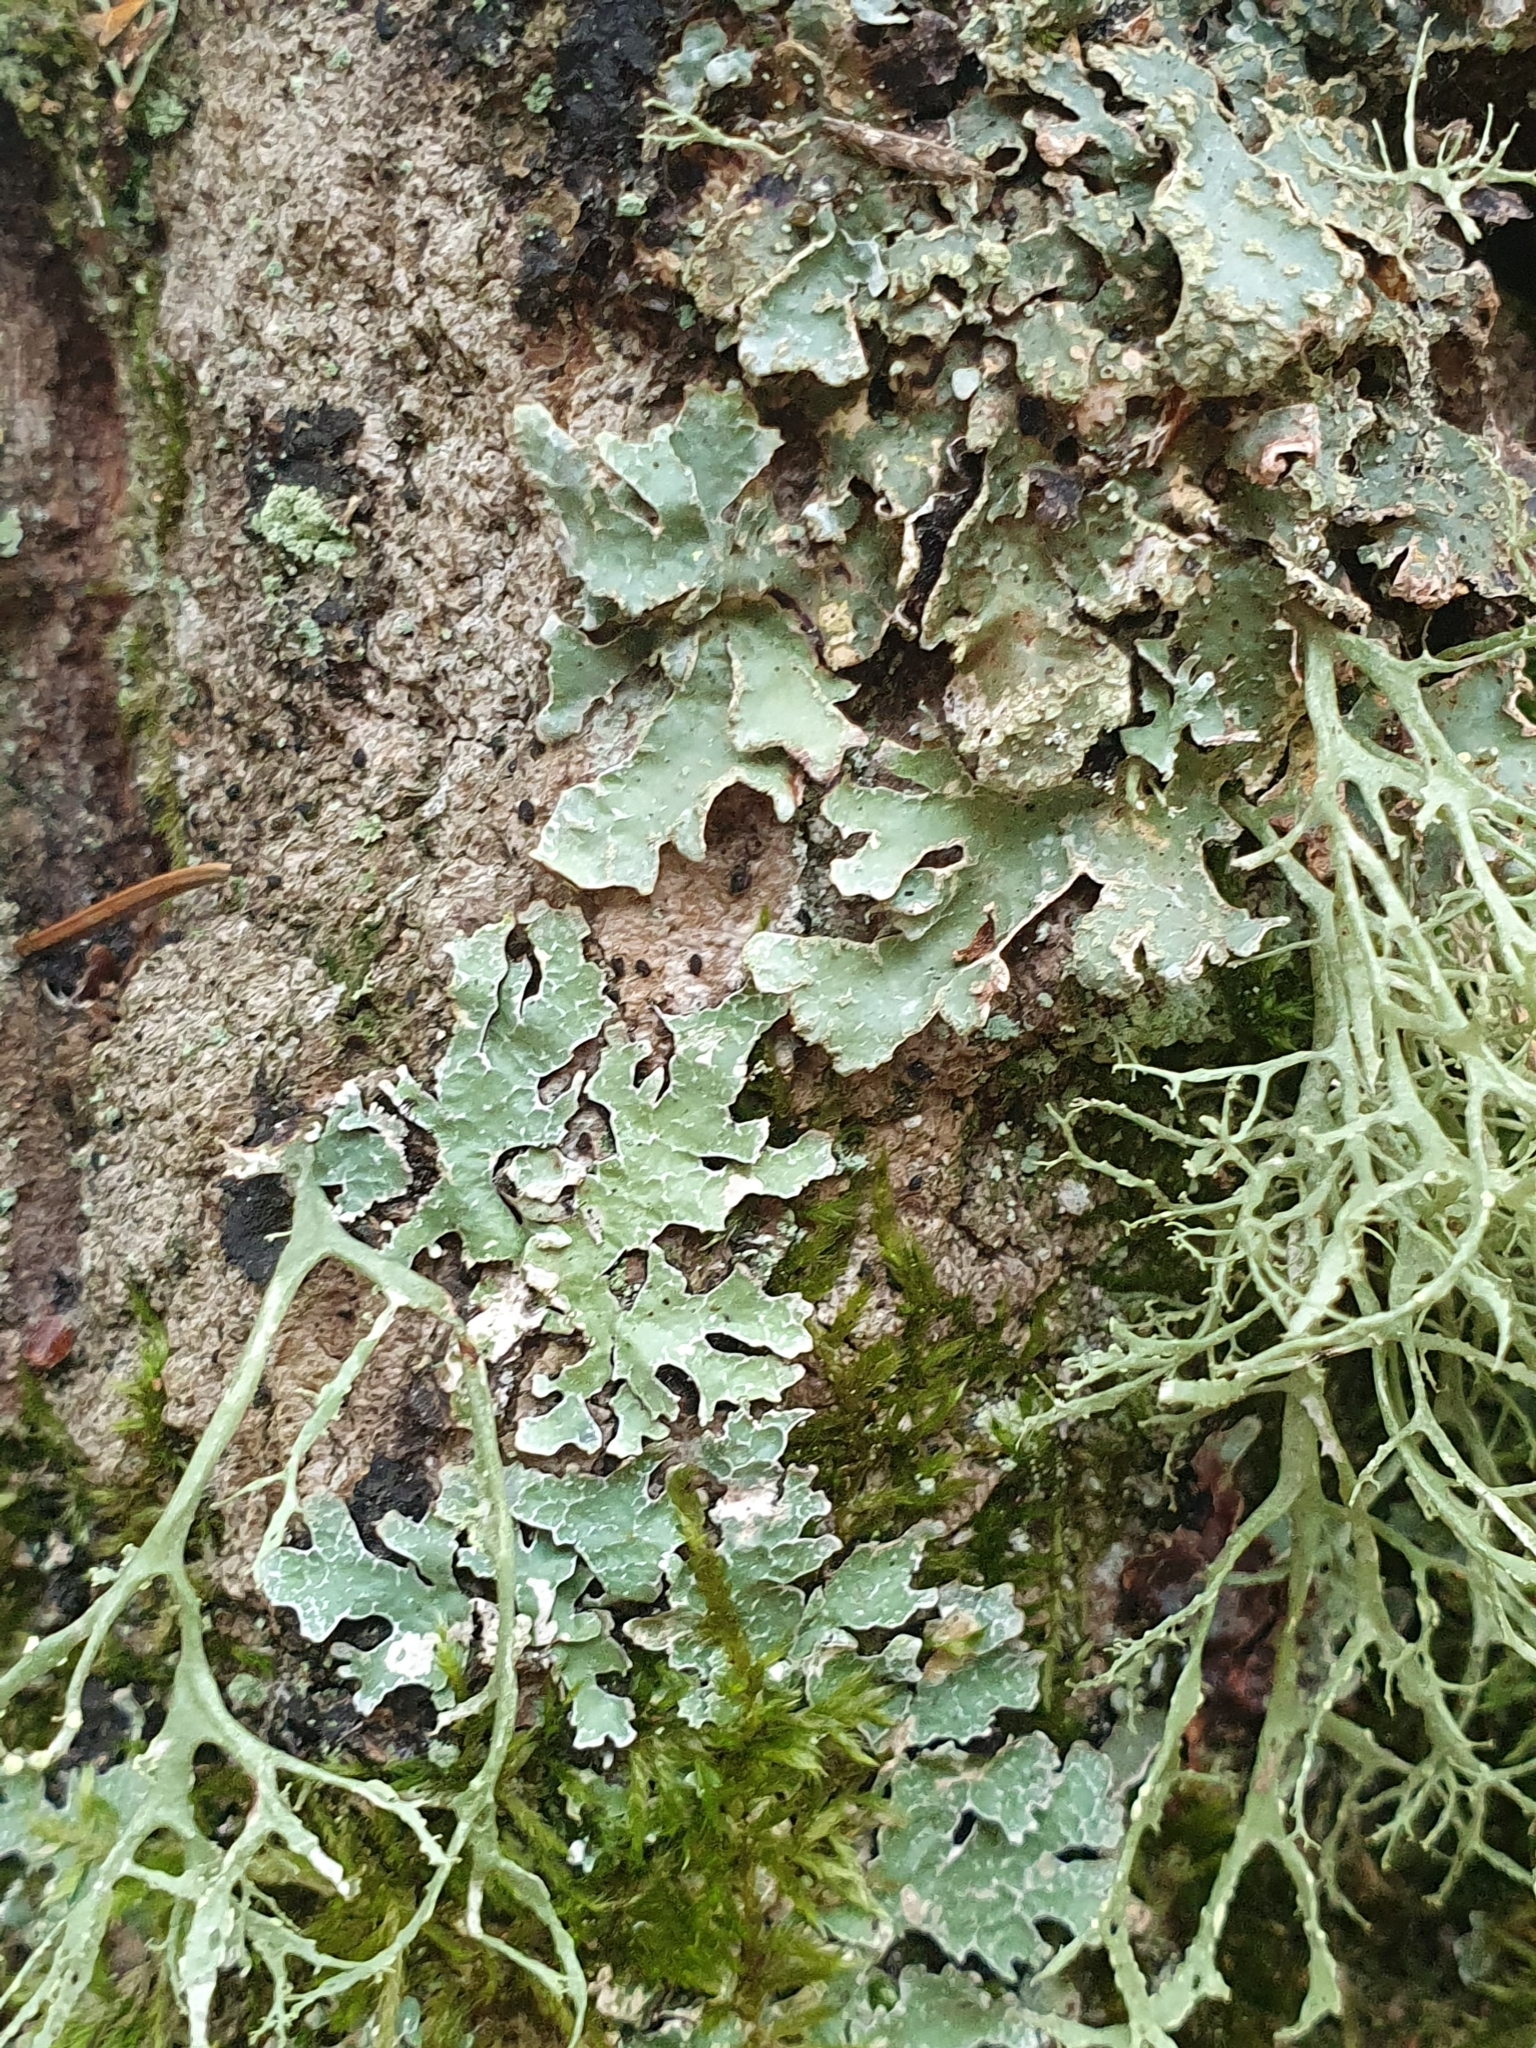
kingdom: Fungi
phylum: Ascomycota
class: Lecanoromycetes
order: Lecanorales
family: Parmeliaceae
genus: Parmelia
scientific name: Parmelia sulcata
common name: Netted shield lichen
